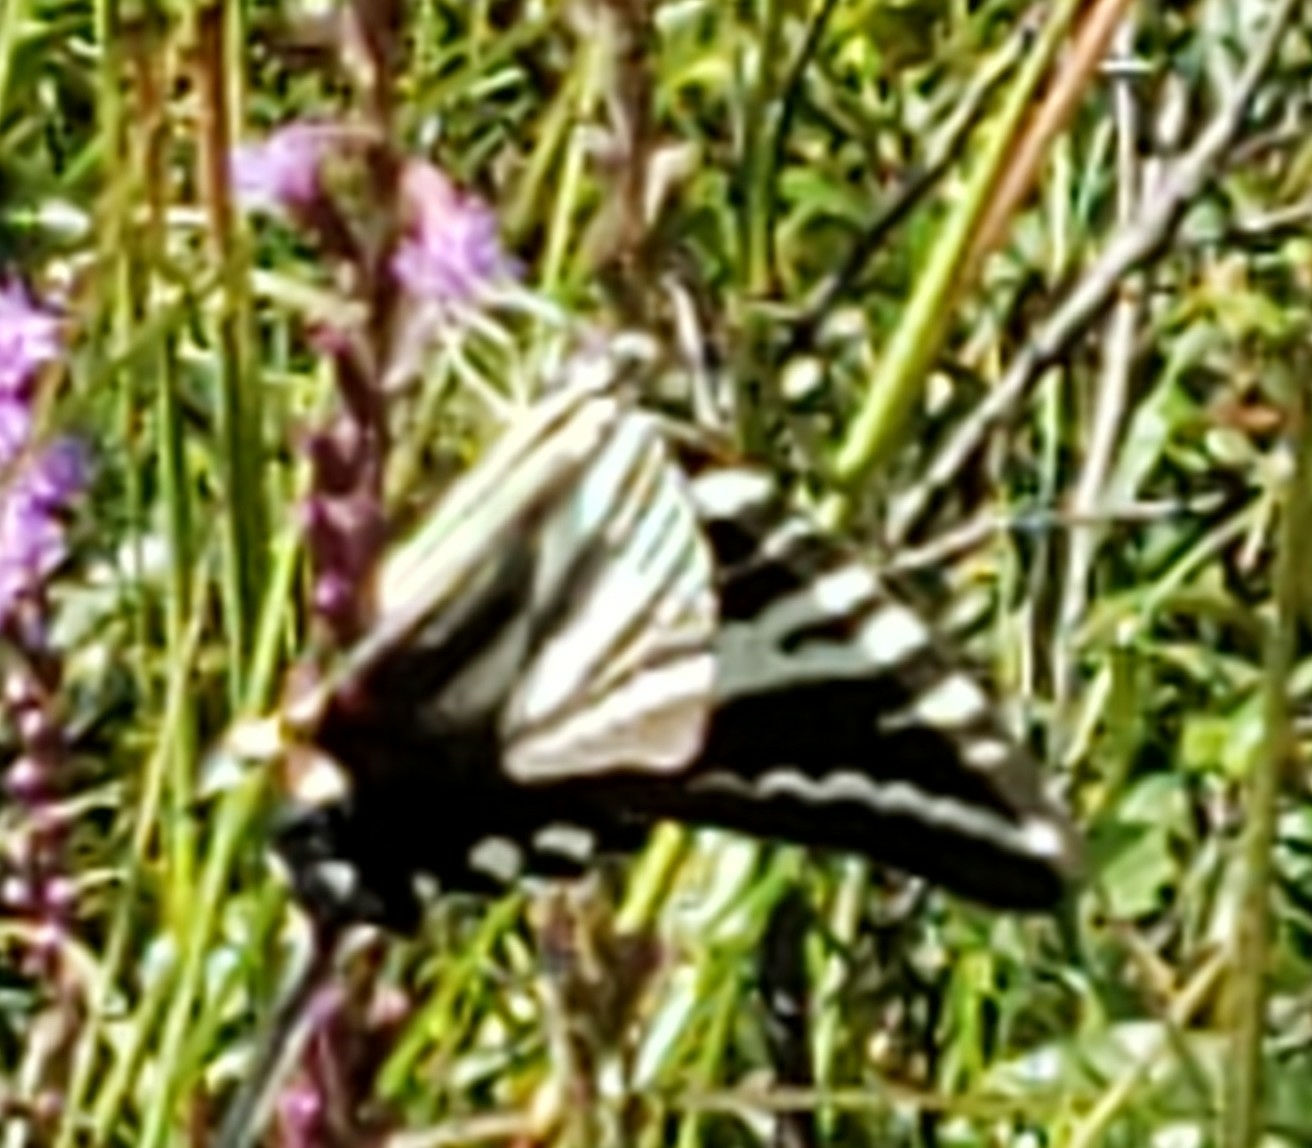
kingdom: Animalia
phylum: Arthropoda
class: Insecta
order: Lepidoptera
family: Papilionidae
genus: Protographium
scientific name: Protographium marcellus
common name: Zebra swallowtail
